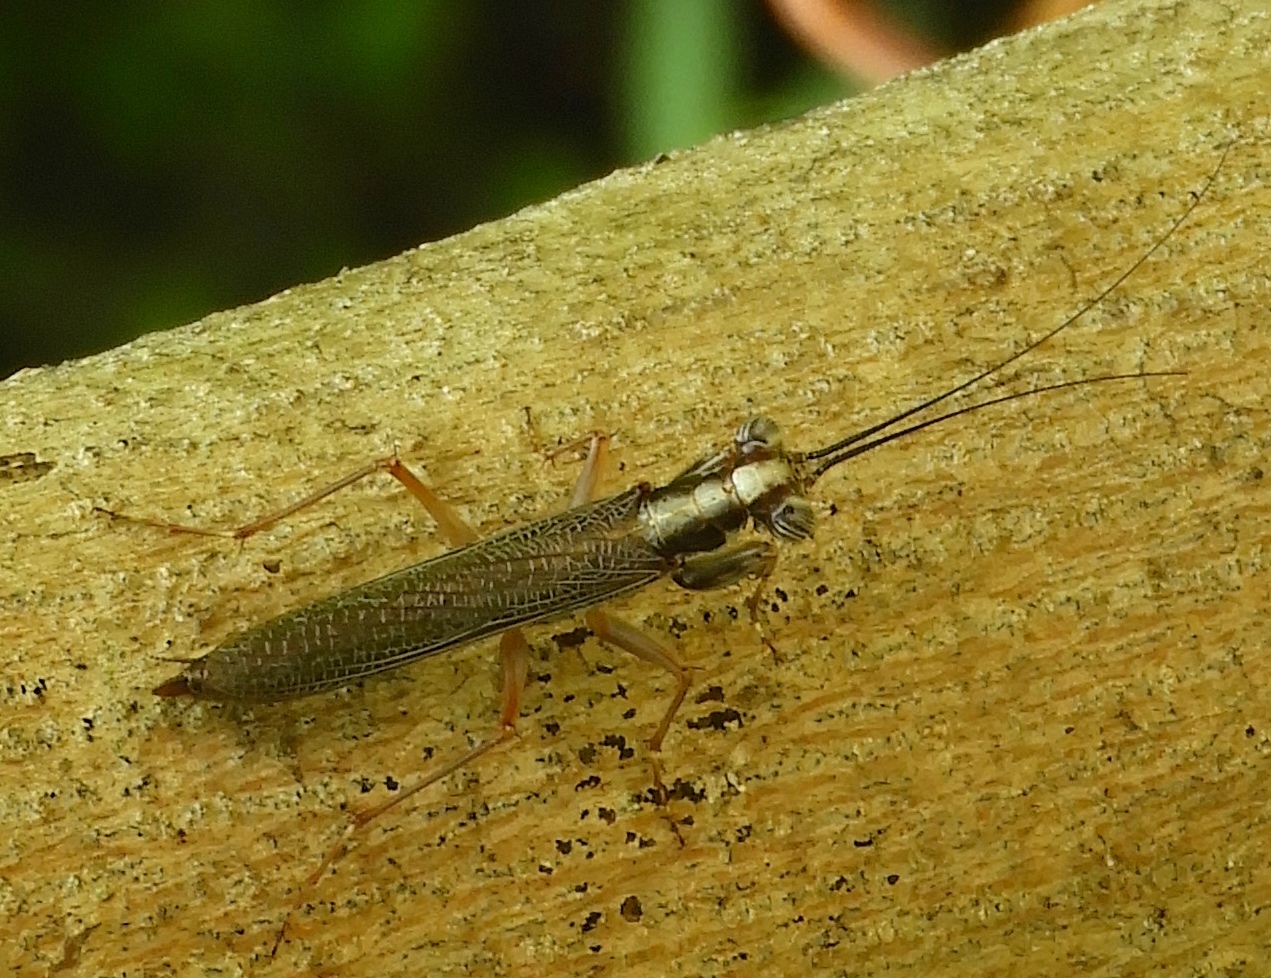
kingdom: Animalia
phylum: Arthropoda
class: Insecta
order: Mantodea
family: Mantoididae
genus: Mantoida
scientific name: Mantoida maya
